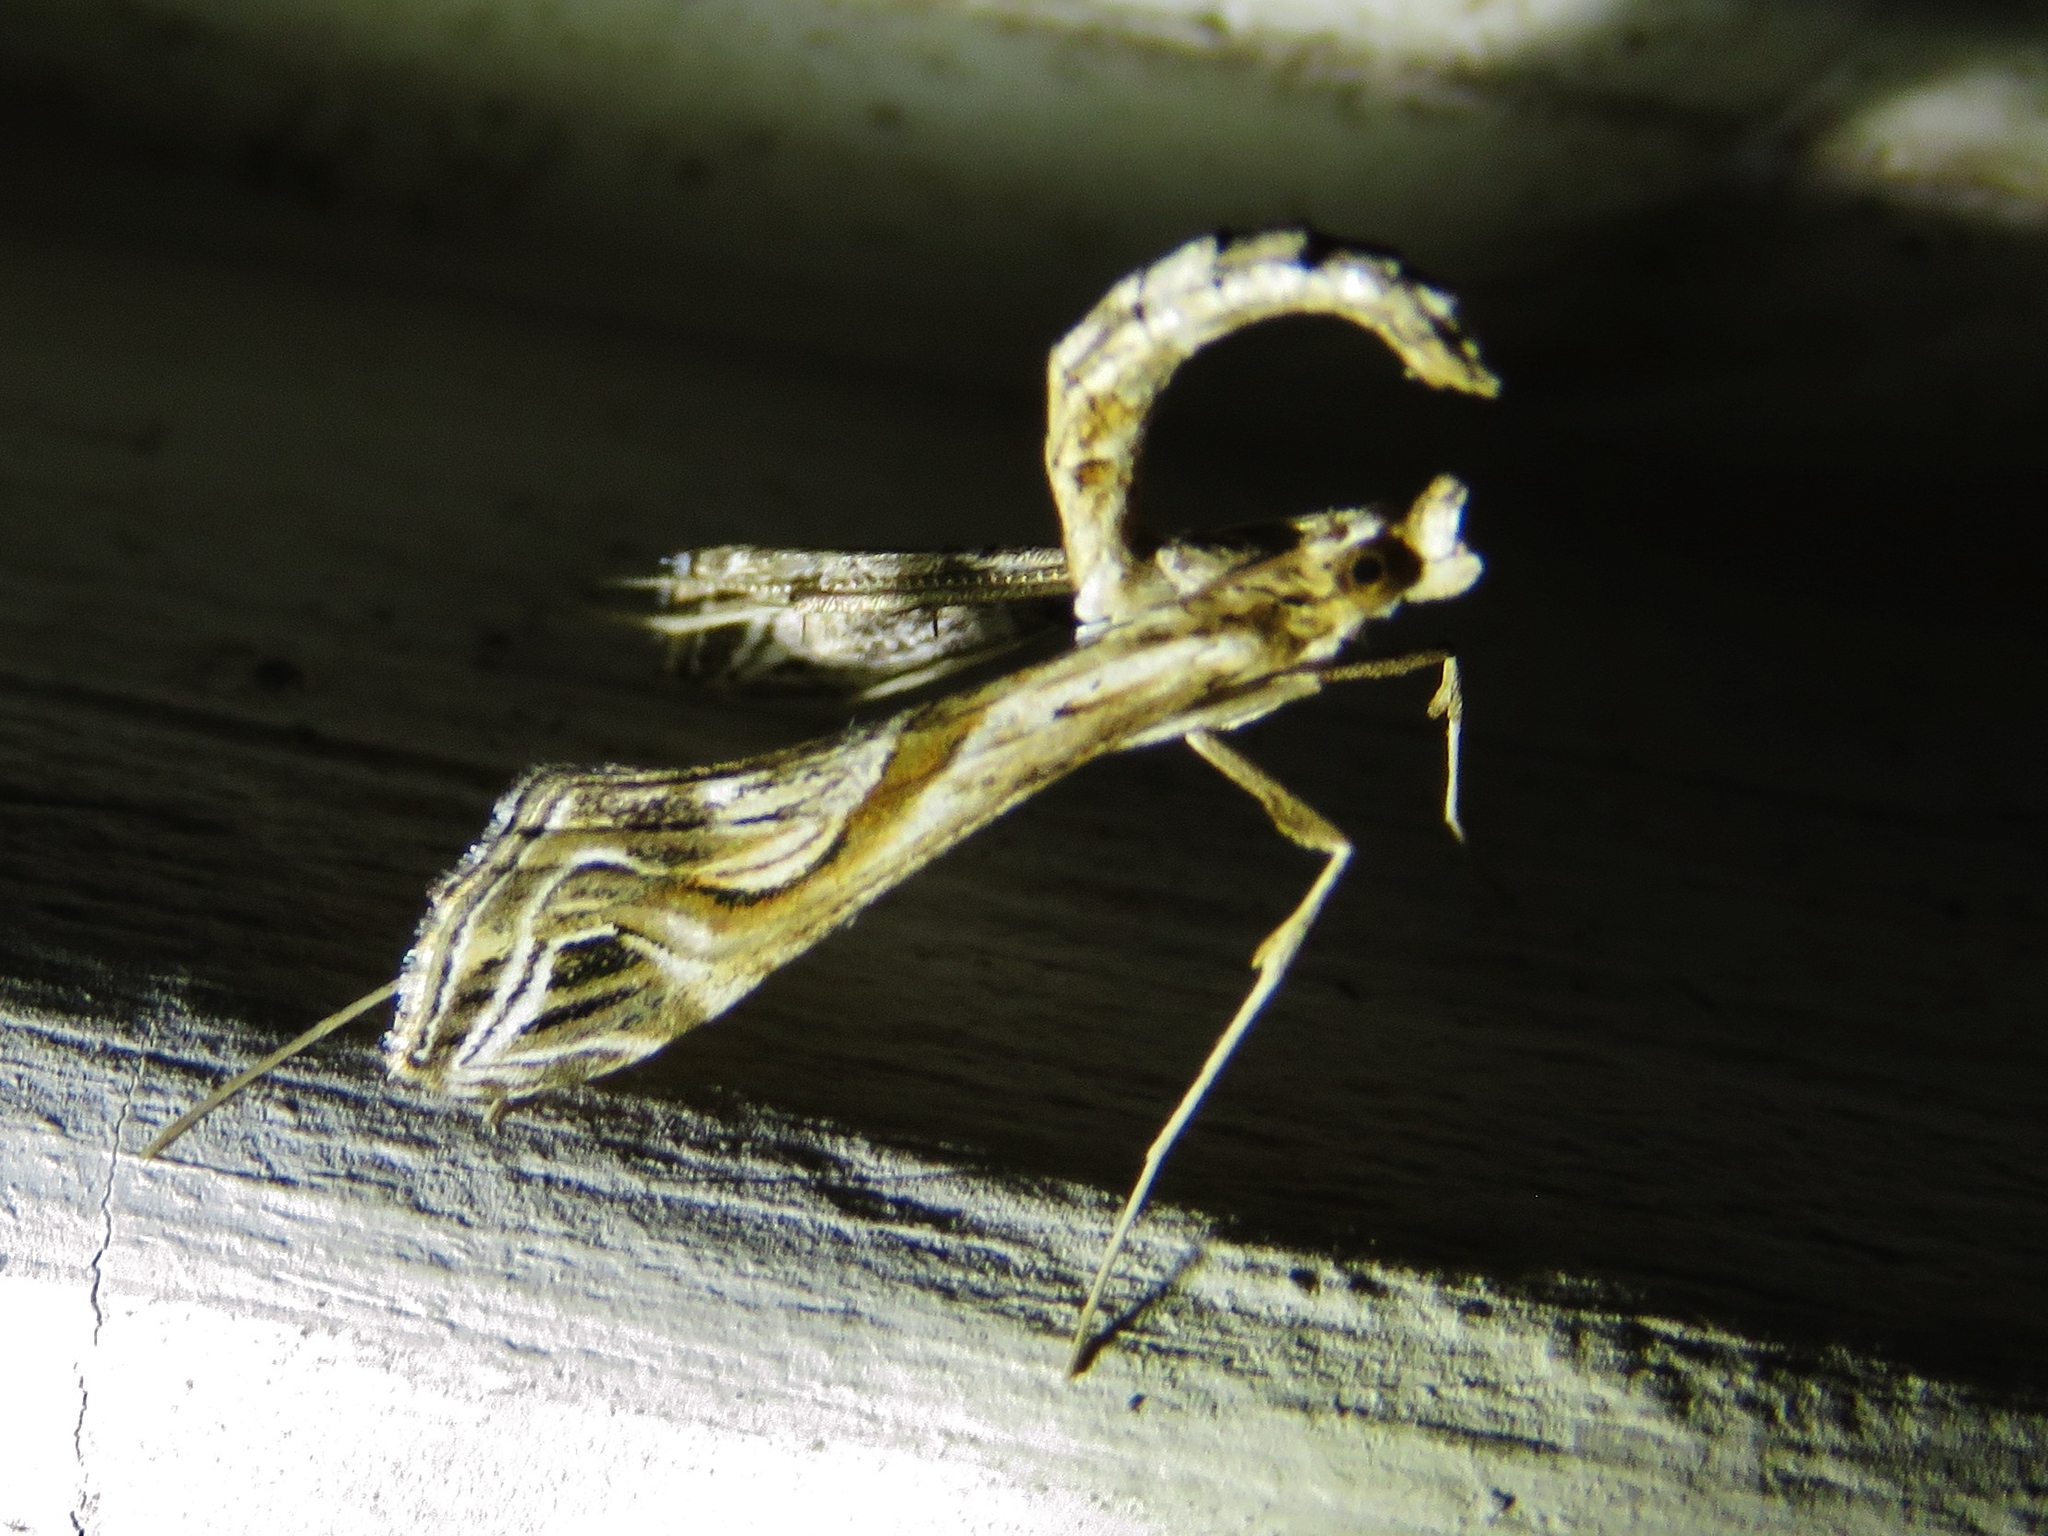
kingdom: Animalia
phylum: Arthropoda
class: Insecta
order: Lepidoptera
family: Crambidae
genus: Lineodes
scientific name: Lineodes integra
